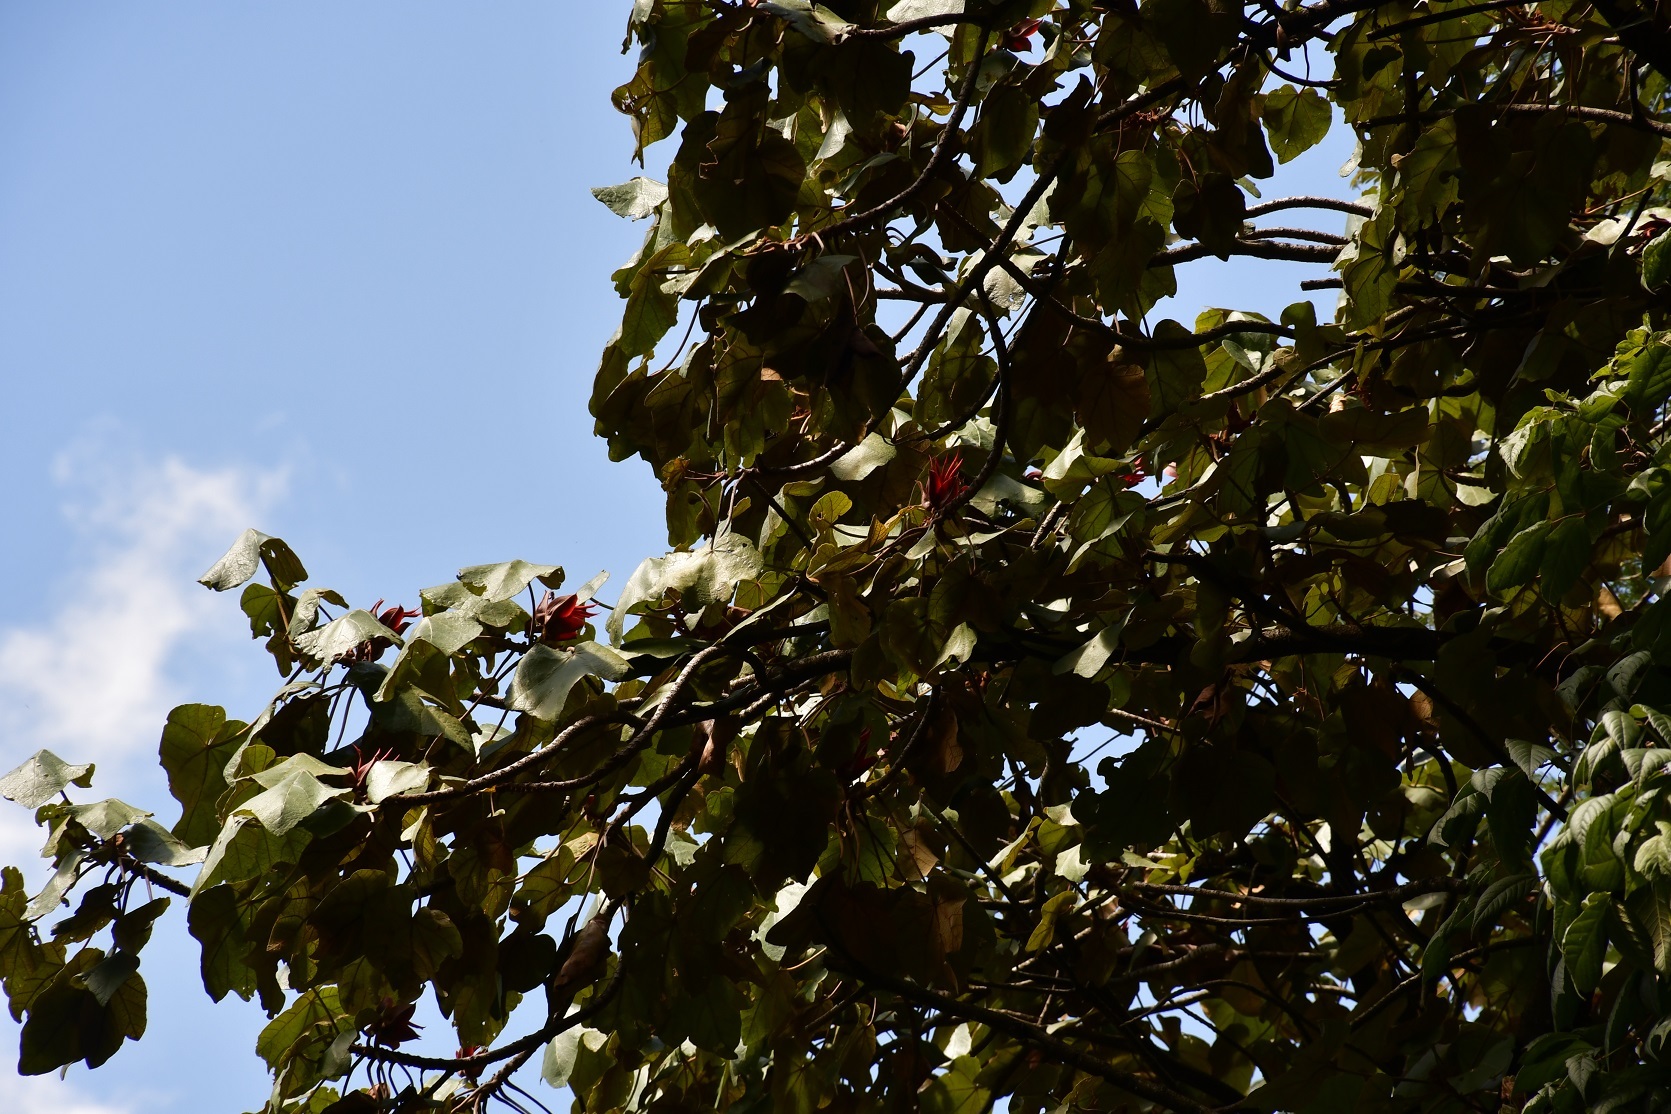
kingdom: Plantae
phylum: Tracheophyta
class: Magnoliopsida
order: Malvales
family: Malvaceae
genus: Chiranthodendron
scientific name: Chiranthodendron pentadactylon
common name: Mexican-hat-plant
